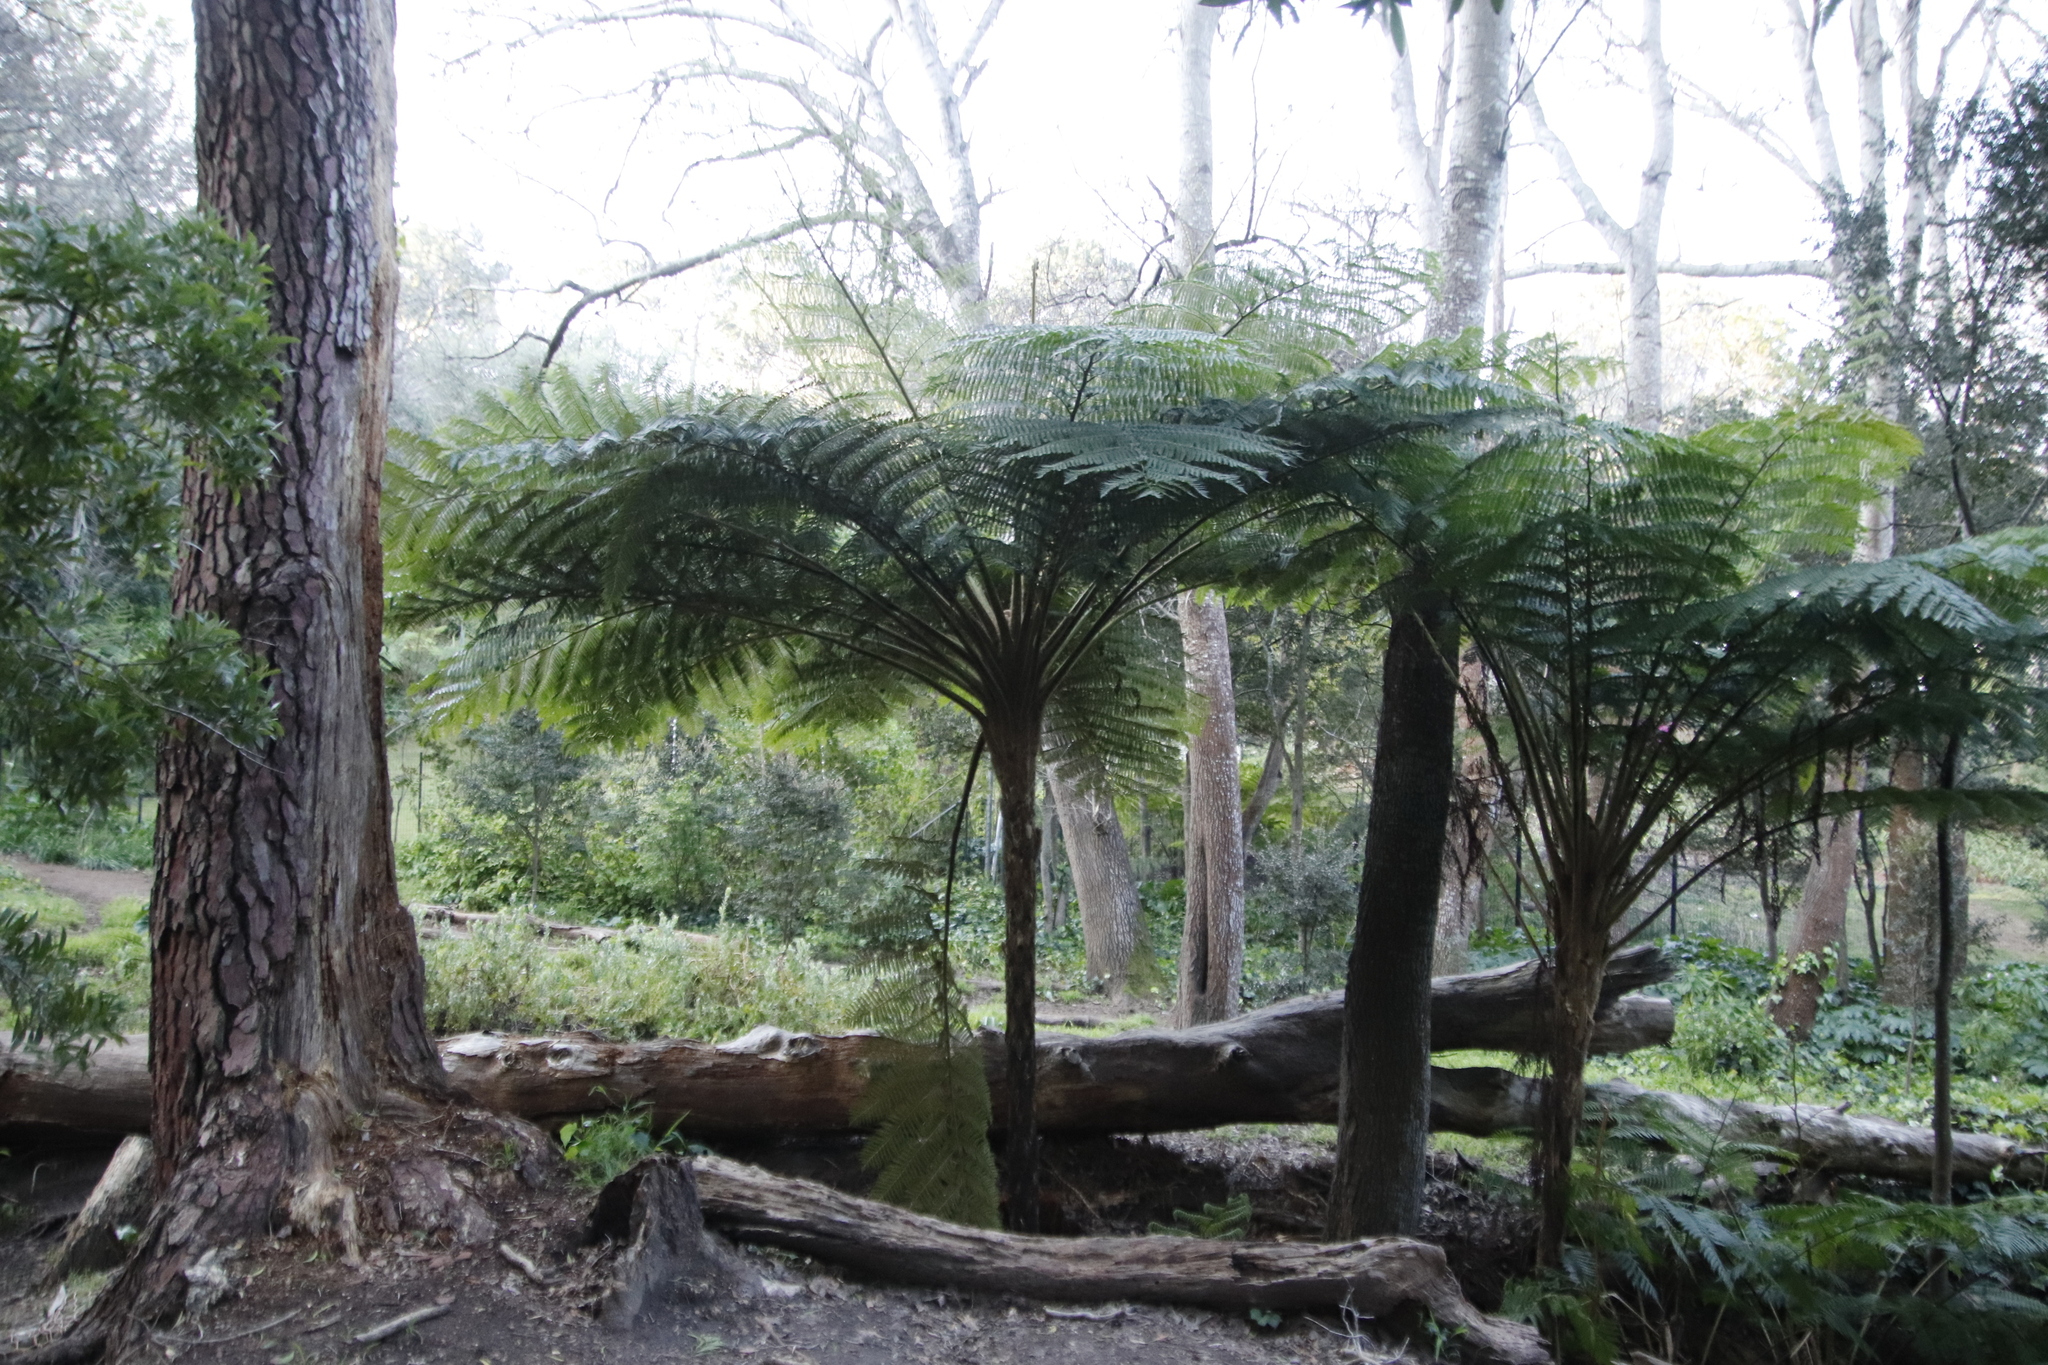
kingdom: Plantae
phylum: Tracheophyta
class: Polypodiopsida
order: Cyatheales
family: Cyatheaceae
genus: Sphaeropteris
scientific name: Sphaeropteris cooperi
